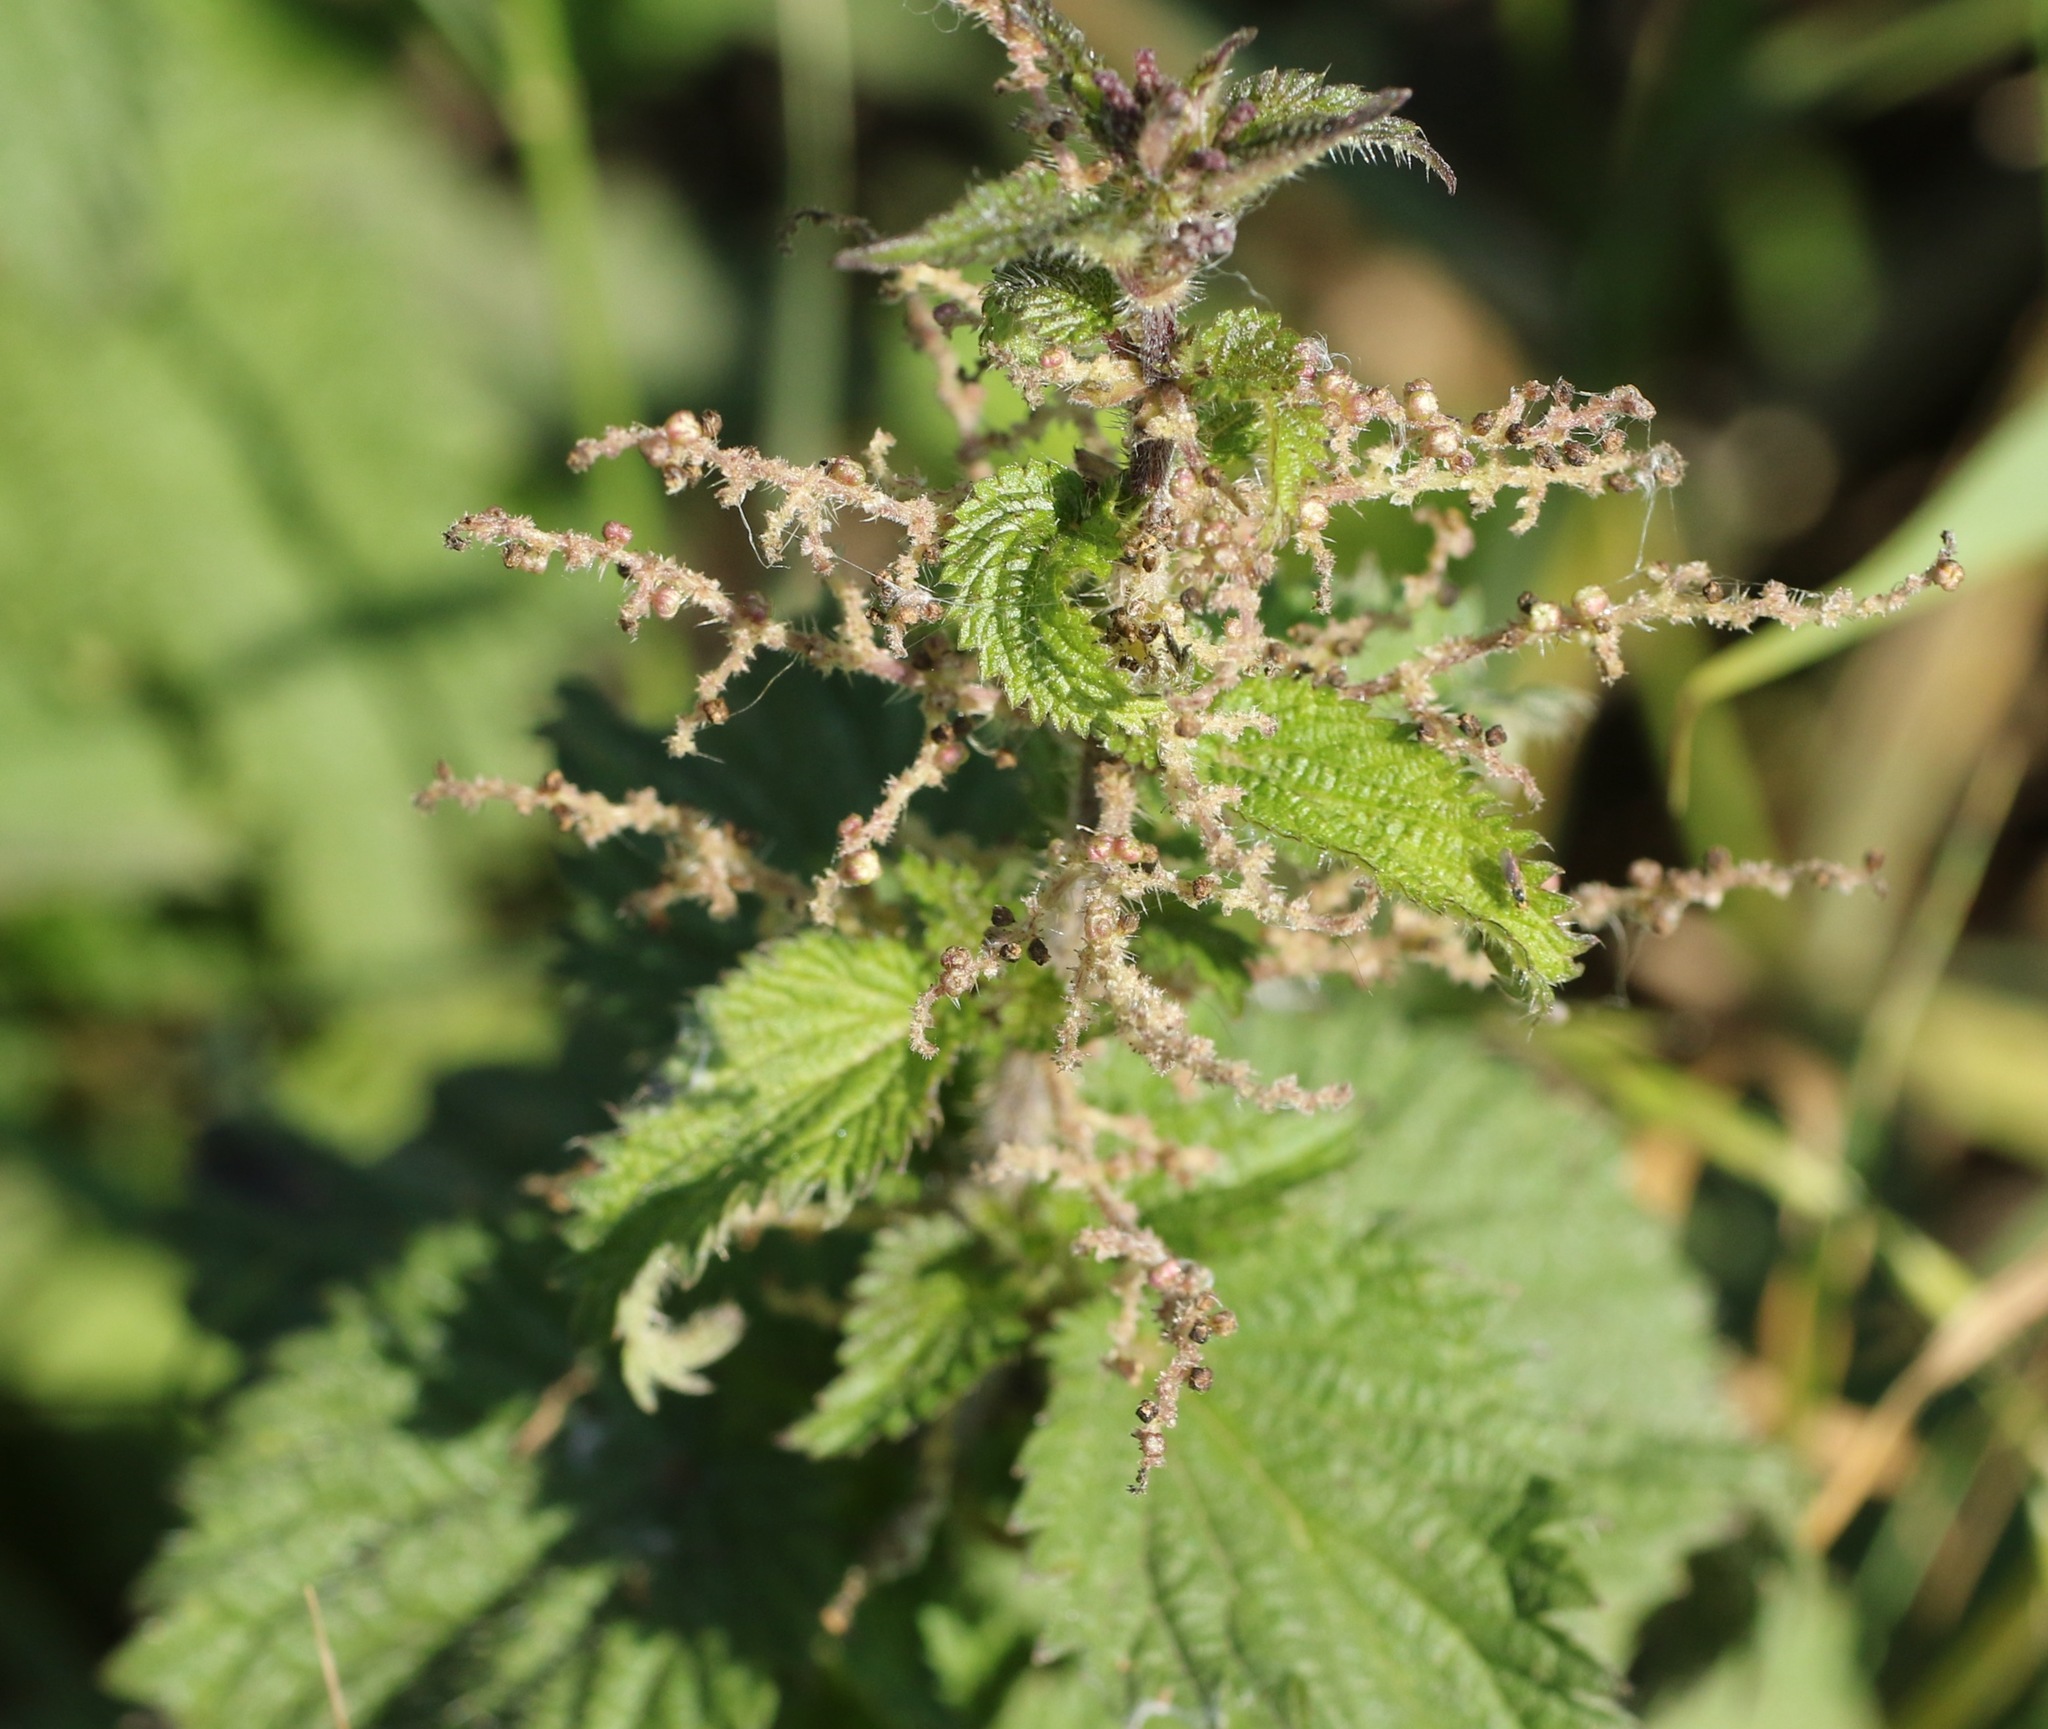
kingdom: Plantae
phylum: Tracheophyta
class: Magnoliopsida
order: Rosales
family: Urticaceae
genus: Urtica
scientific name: Urtica dioica
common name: Common nettle
